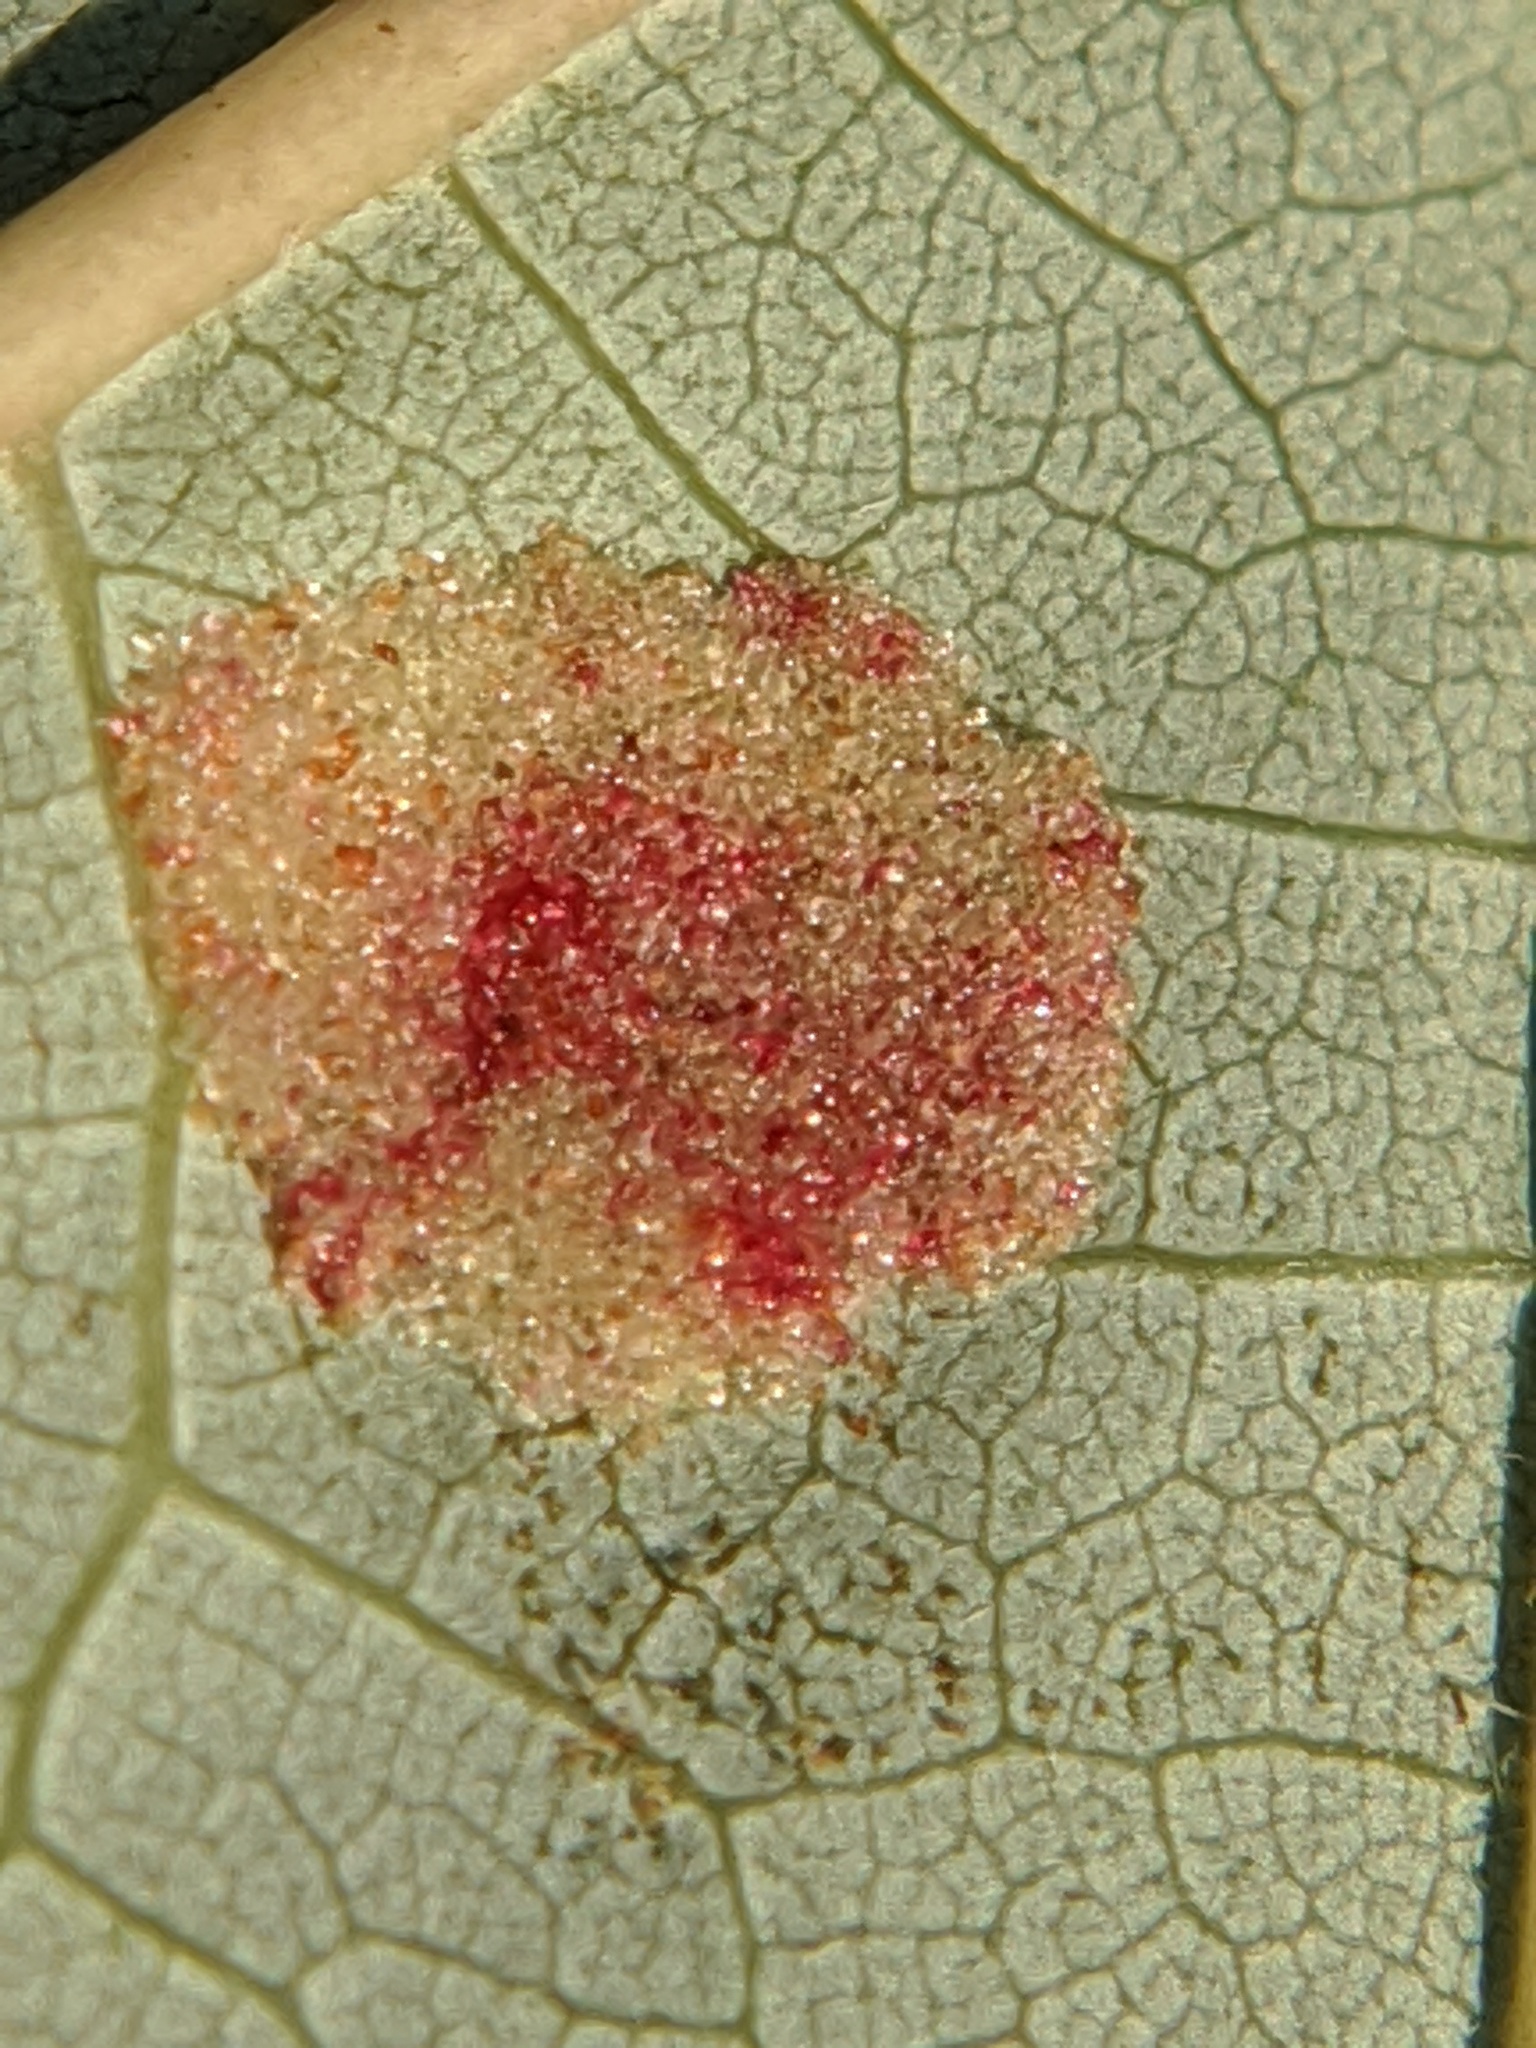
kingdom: Animalia
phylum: Arthropoda
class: Arachnida
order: Trombidiformes
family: Eriophyidae
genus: Eriophyes
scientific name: Eriophyes
